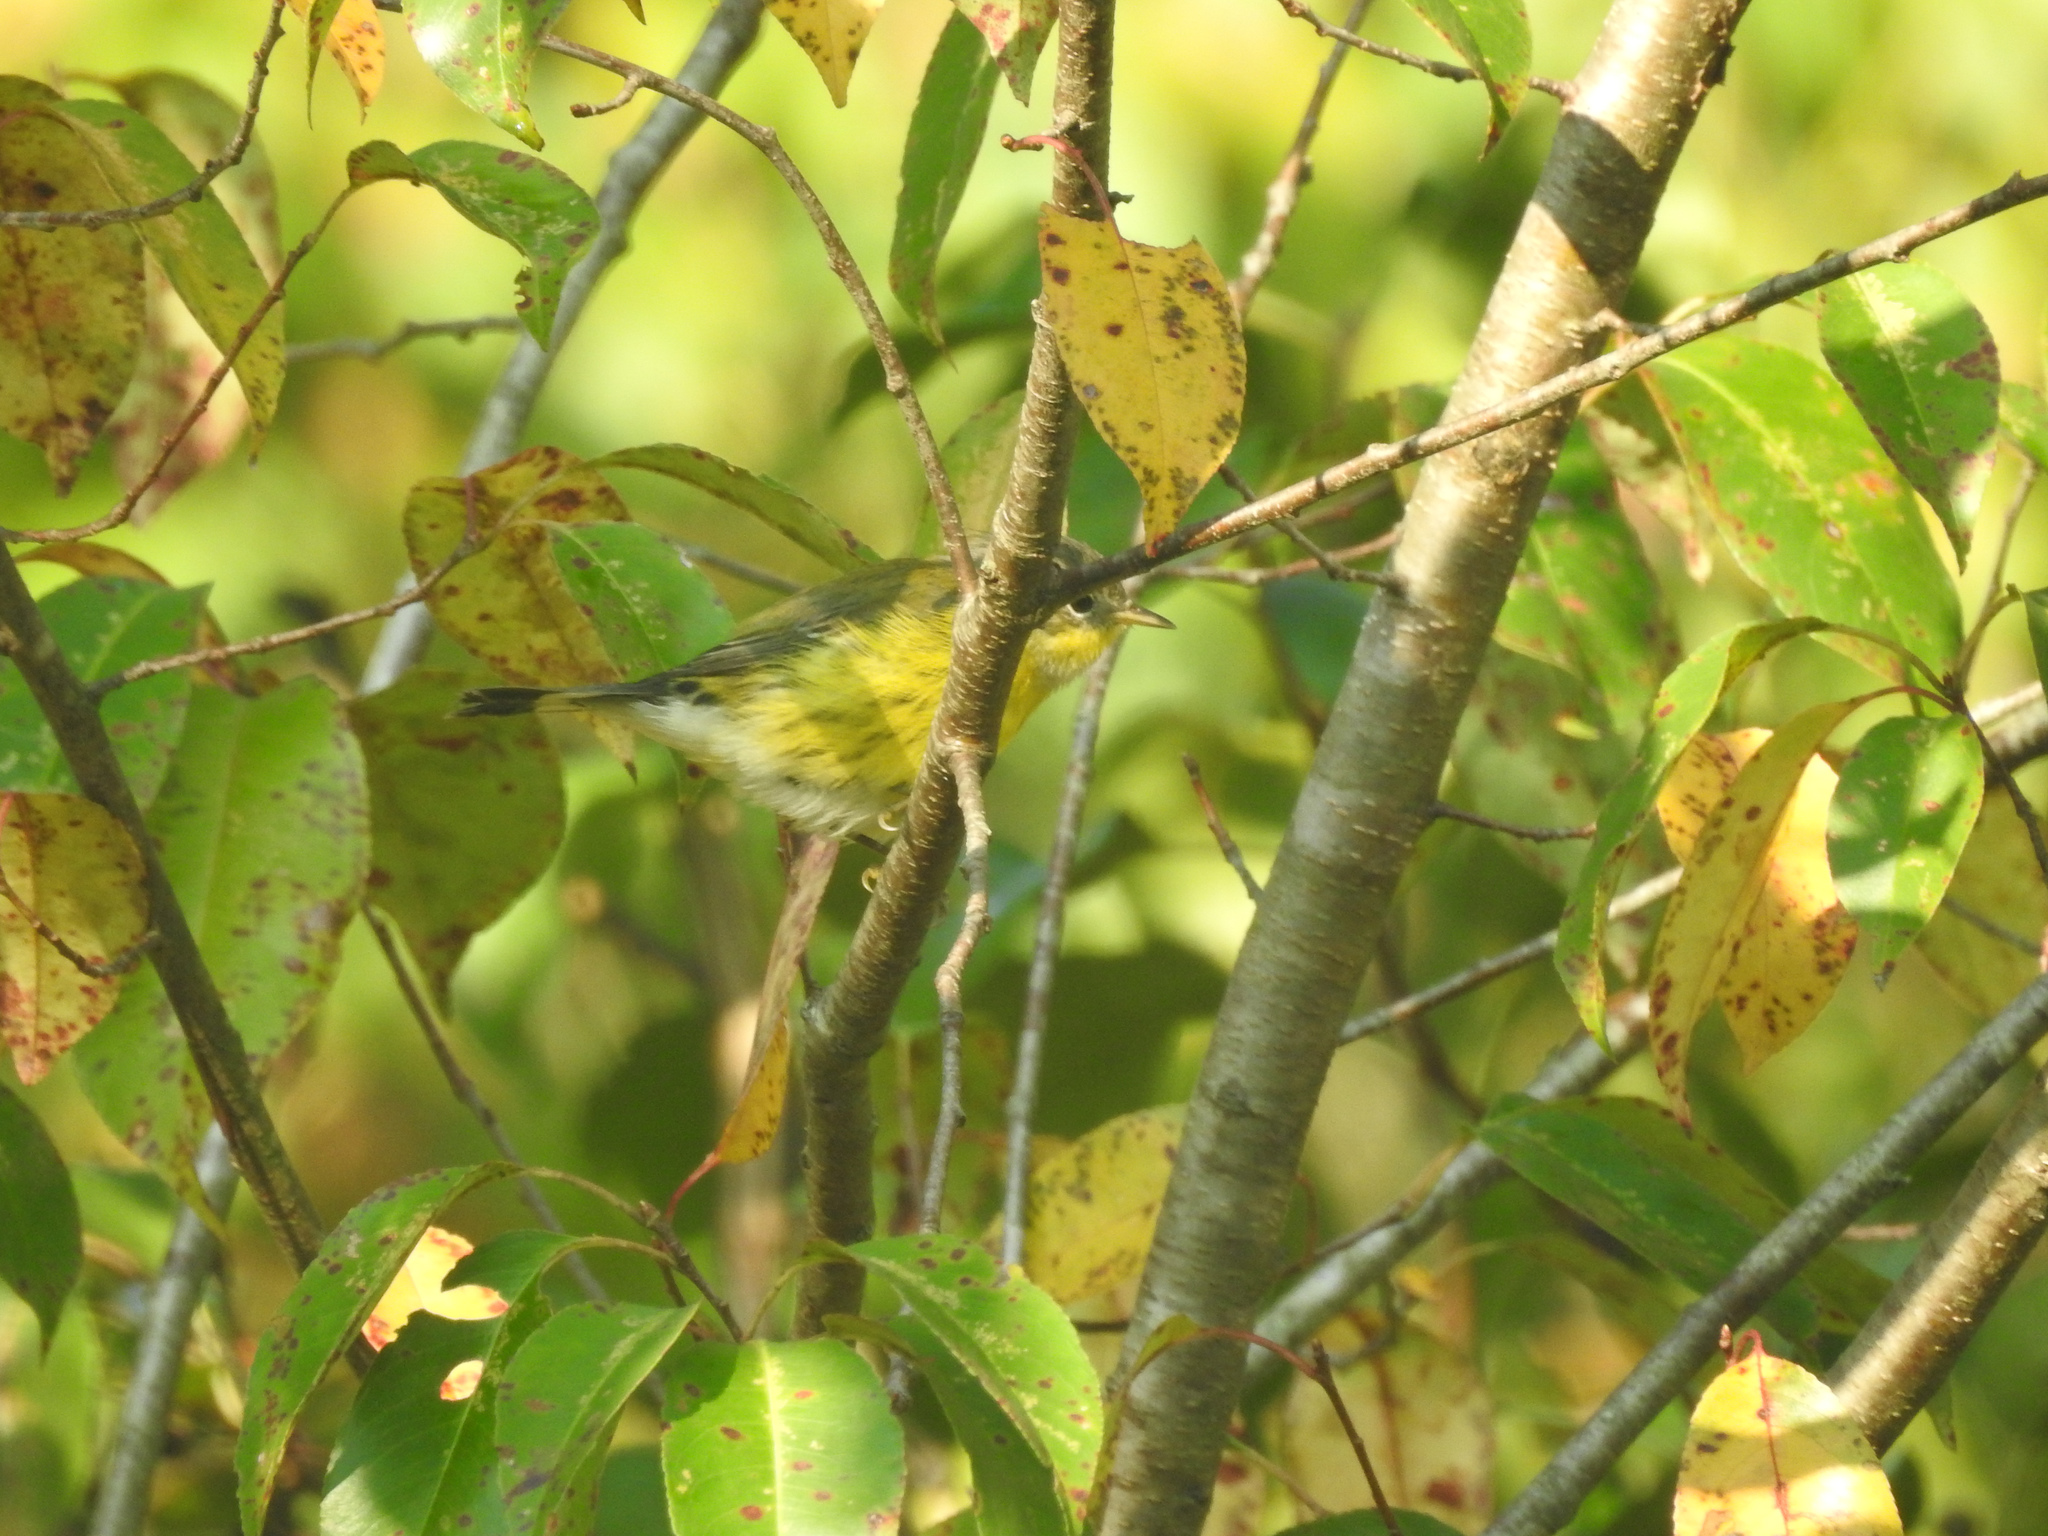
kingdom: Animalia
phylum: Chordata
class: Aves
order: Passeriformes
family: Parulidae
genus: Setophaga
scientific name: Setophaga magnolia
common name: Magnolia warbler
